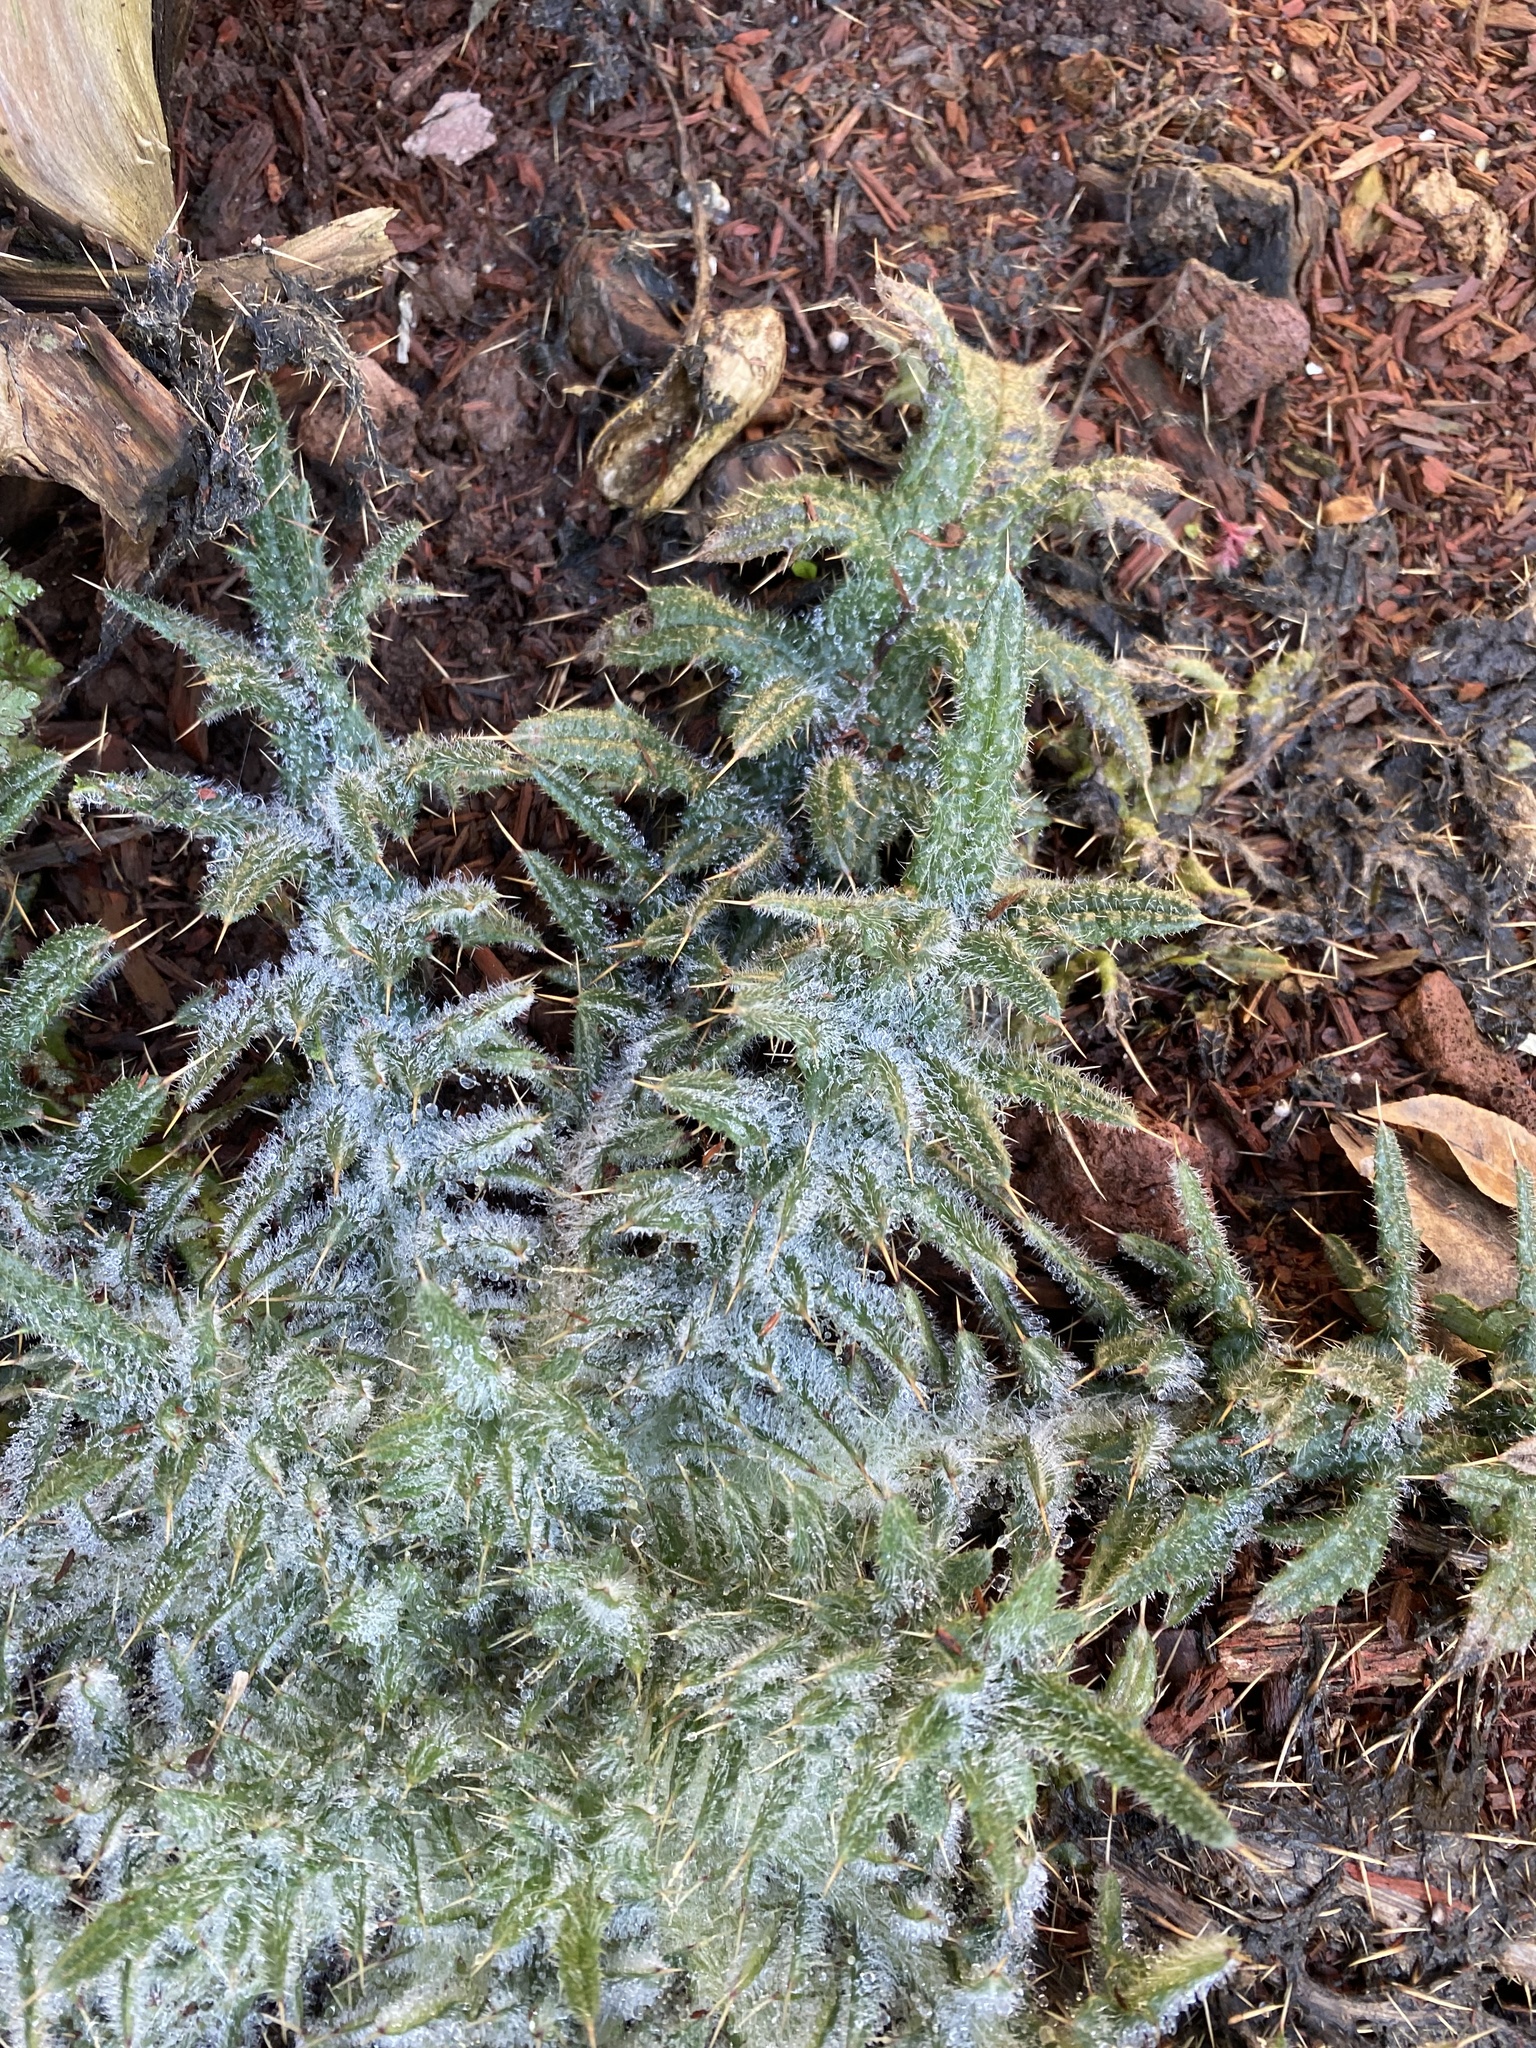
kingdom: Plantae
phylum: Tracheophyta
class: Magnoliopsida
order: Asterales
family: Asteraceae
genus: Cirsium
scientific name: Cirsium vulgare
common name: Bull thistle
